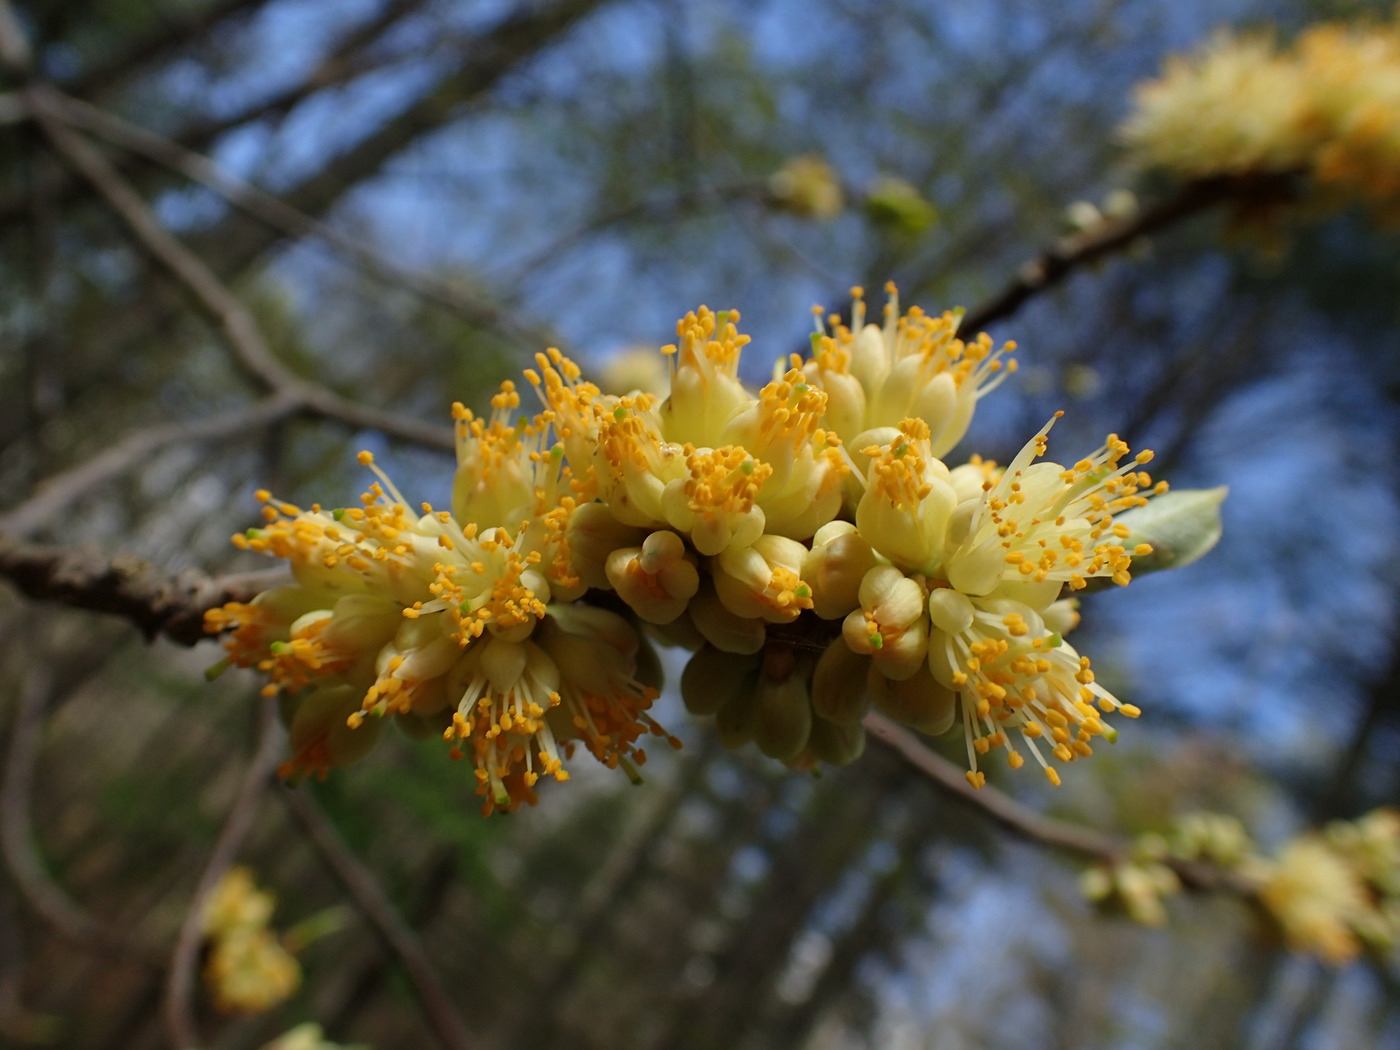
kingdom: Plantae
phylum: Tracheophyta
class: Magnoliopsida
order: Ericales
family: Symplocaceae
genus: Symplocos
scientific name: Symplocos tinctoria
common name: Horse-sugar
